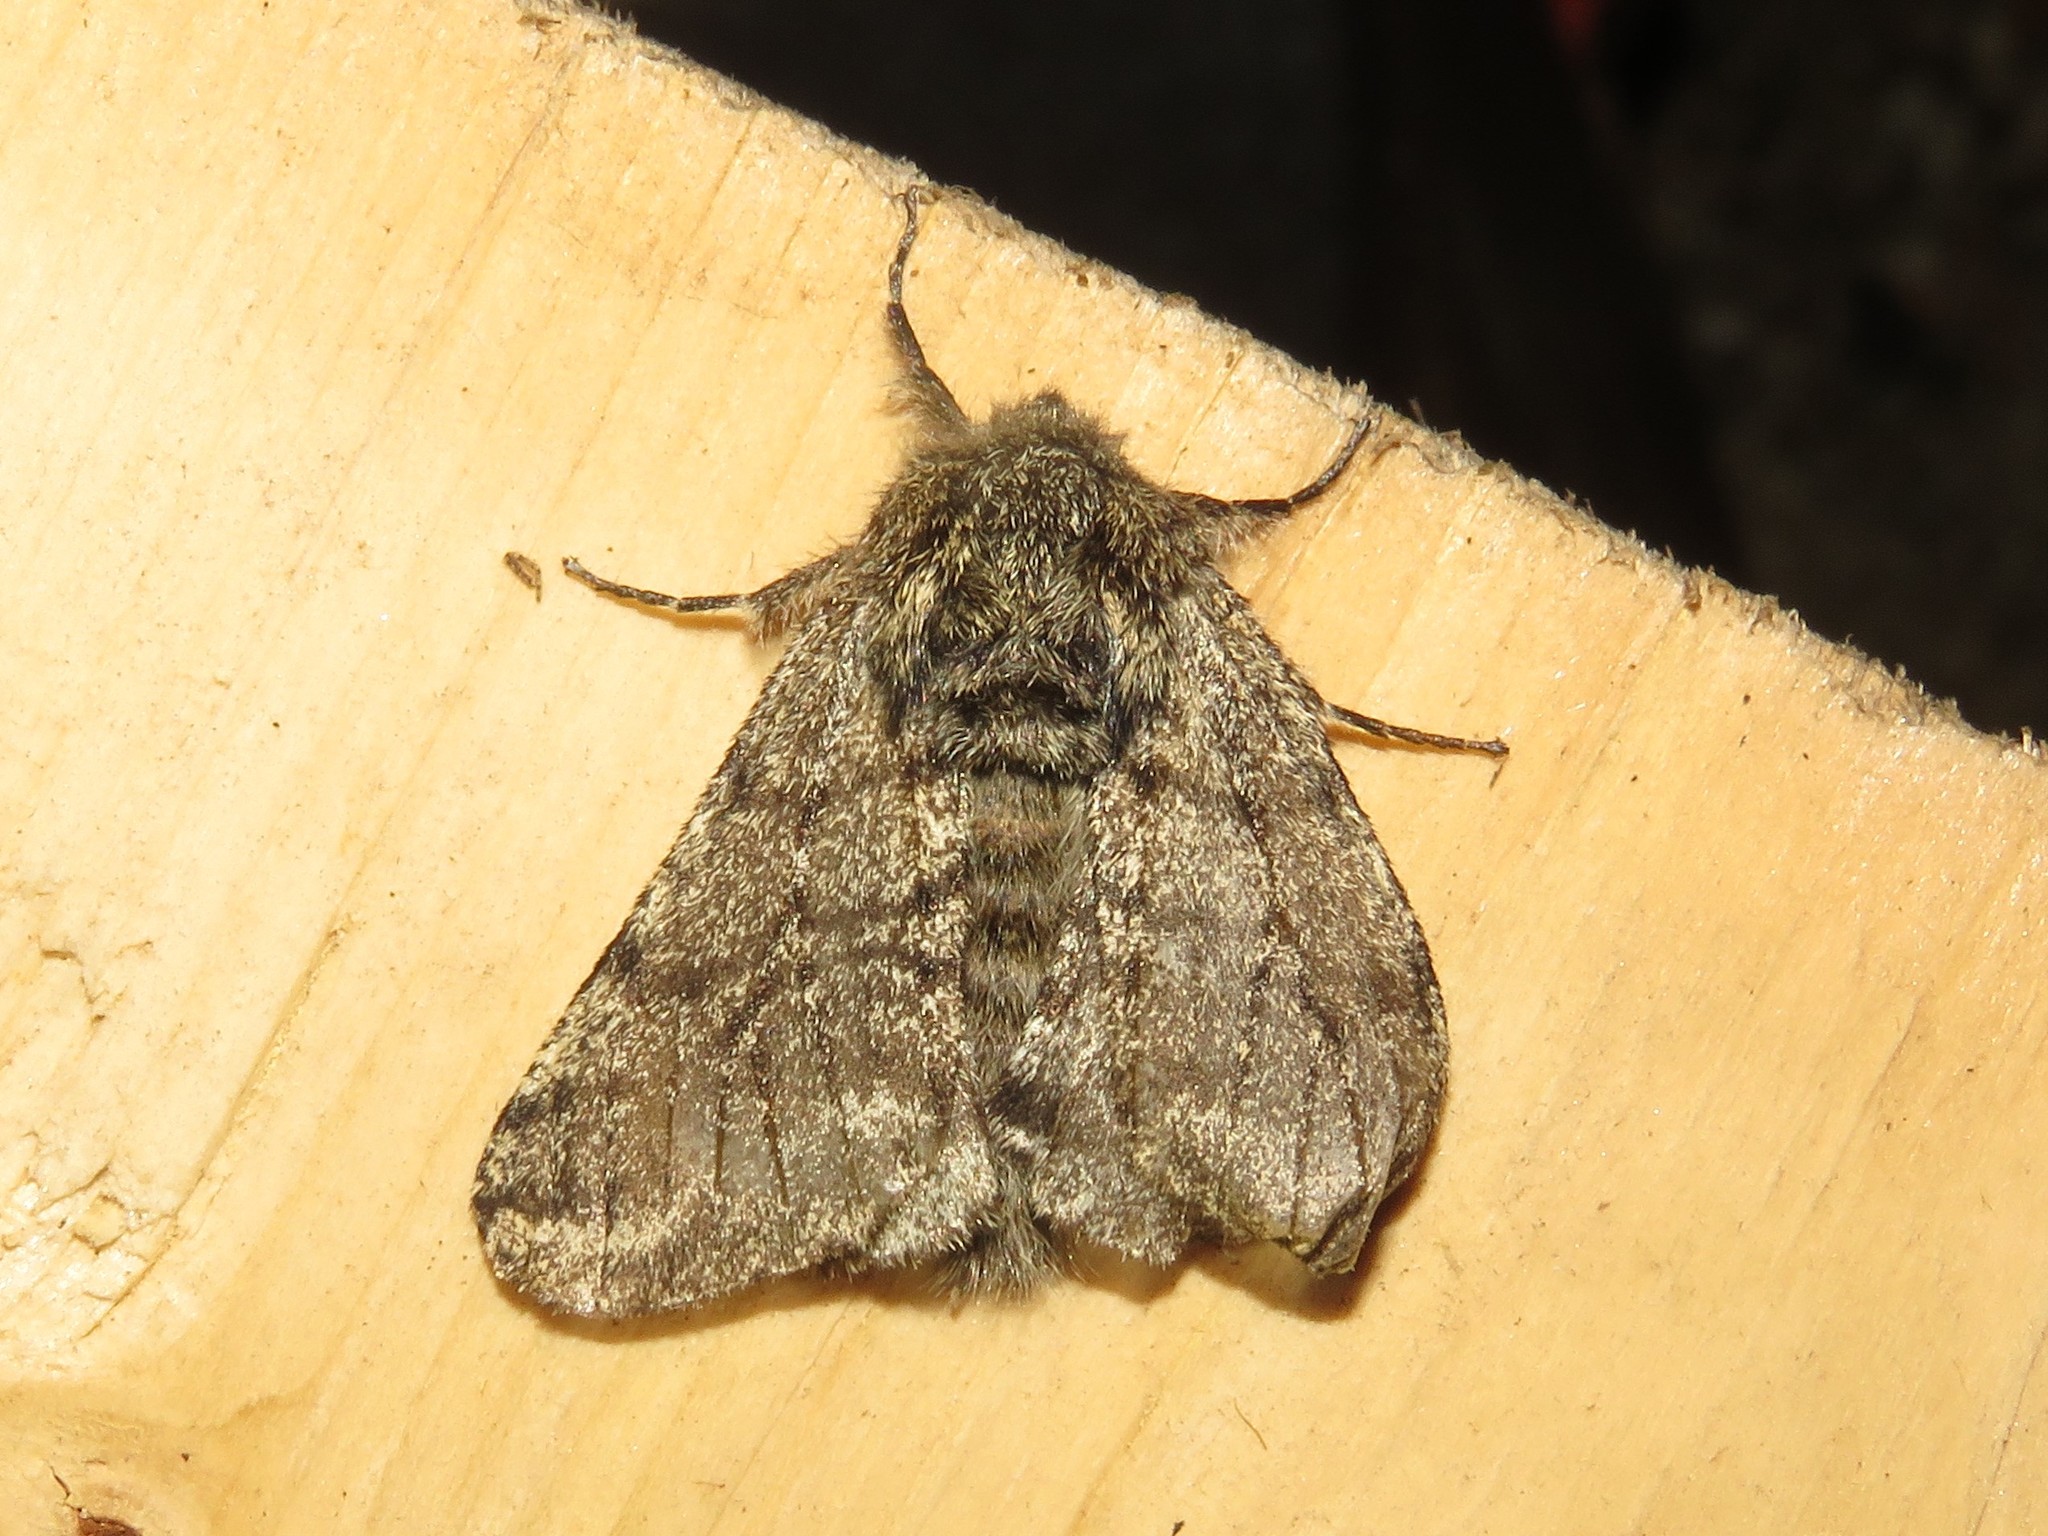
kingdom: Animalia
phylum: Arthropoda
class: Insecta
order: Lepidoptera
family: Geometridae
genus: Lycia
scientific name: Lycia ursaria
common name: Stout spanworm
